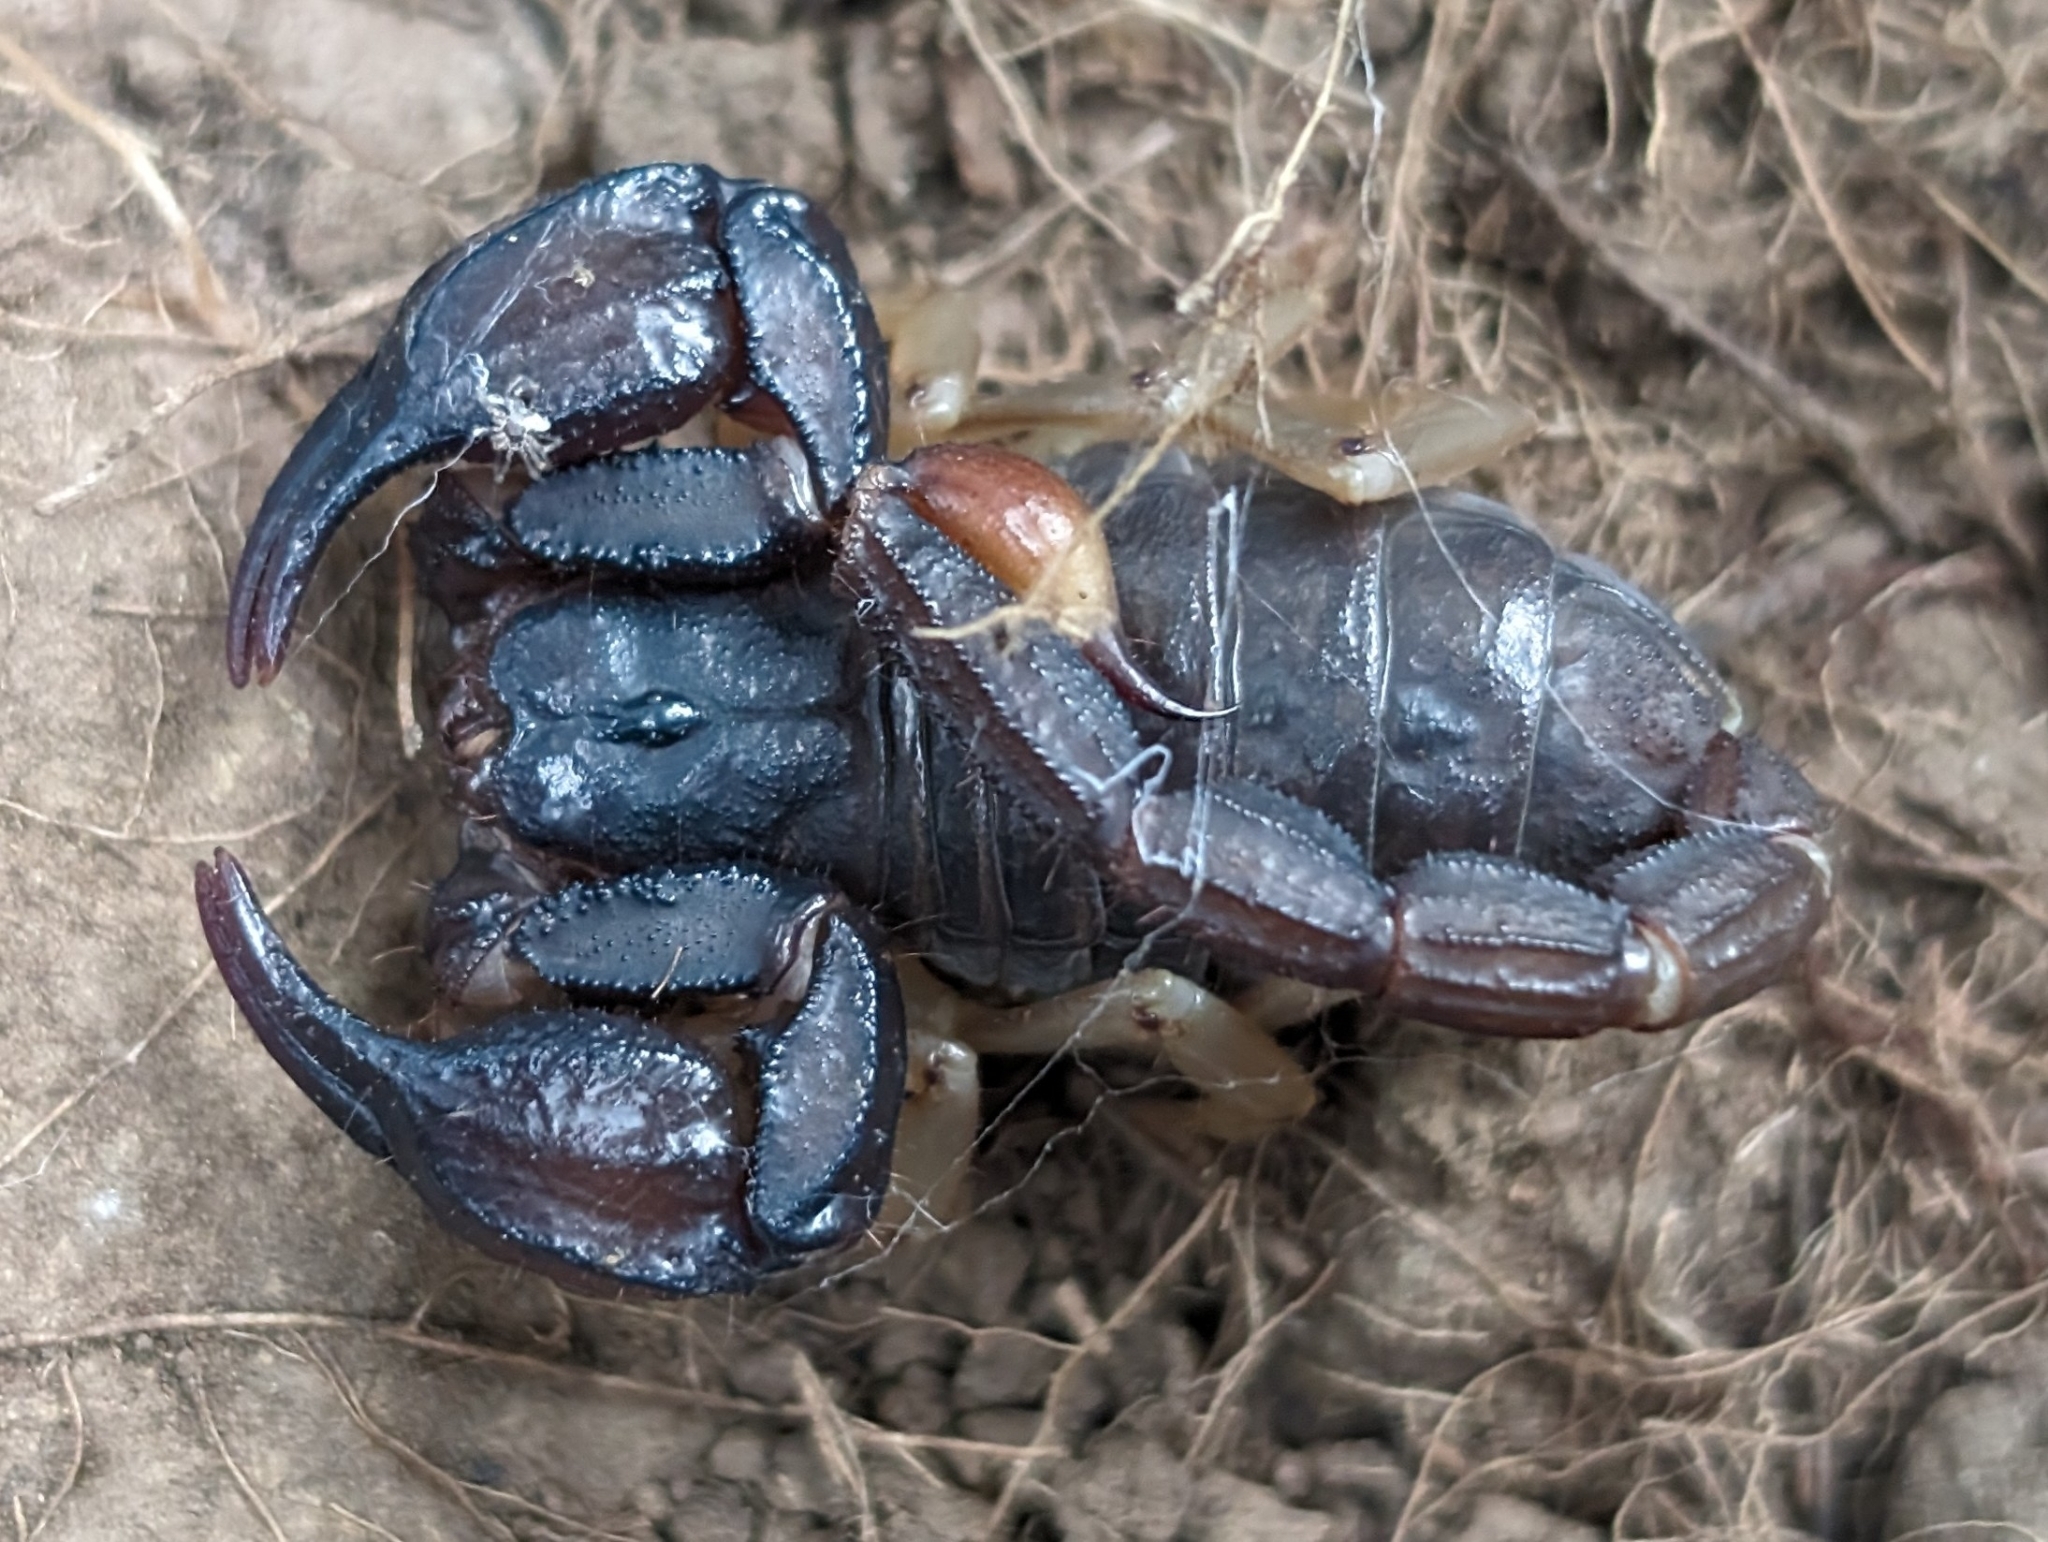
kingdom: Animalia
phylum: Arthropoda
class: Arachnida
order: Scorpiones
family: Chactidae
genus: Uroctonus
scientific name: Uroctonus mordax
